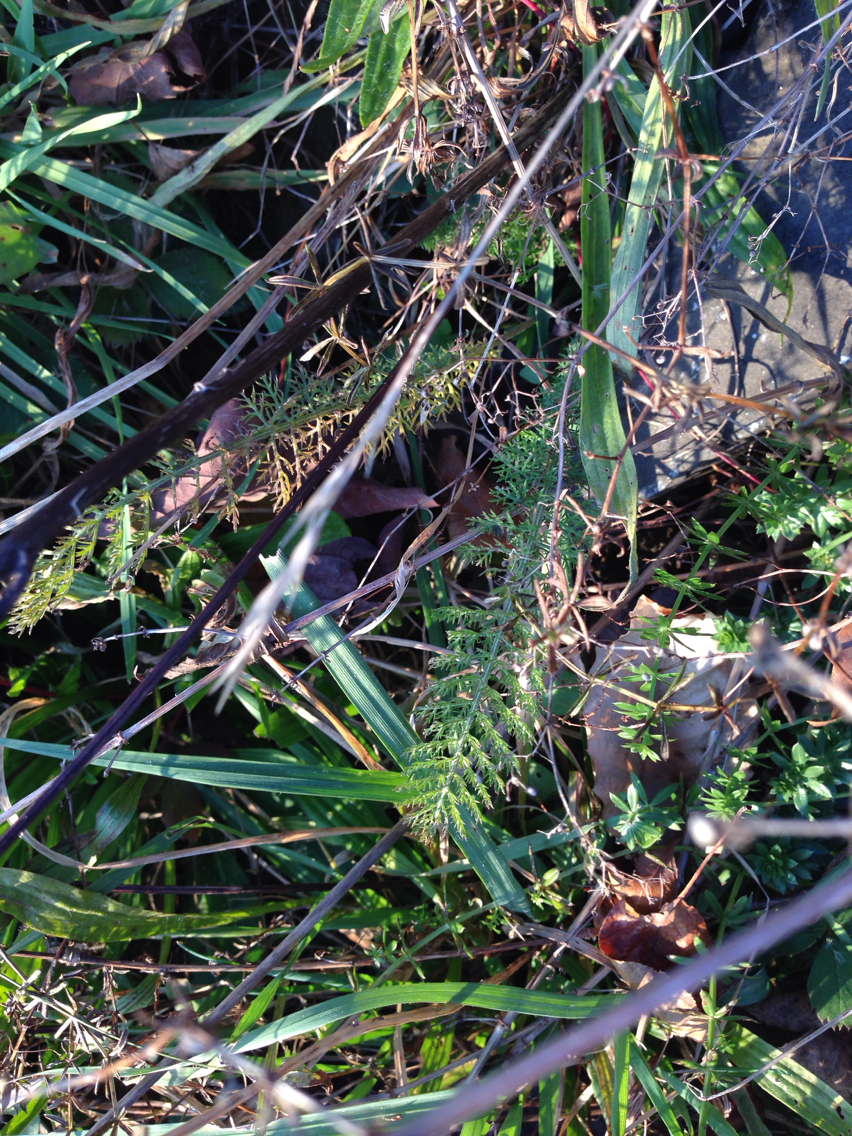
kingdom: Plantae
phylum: Tracheophyta
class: Magnoliopsida
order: Asterales
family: Asteraceae
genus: Achillea
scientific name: Achillea millefolium
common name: Yarrow
